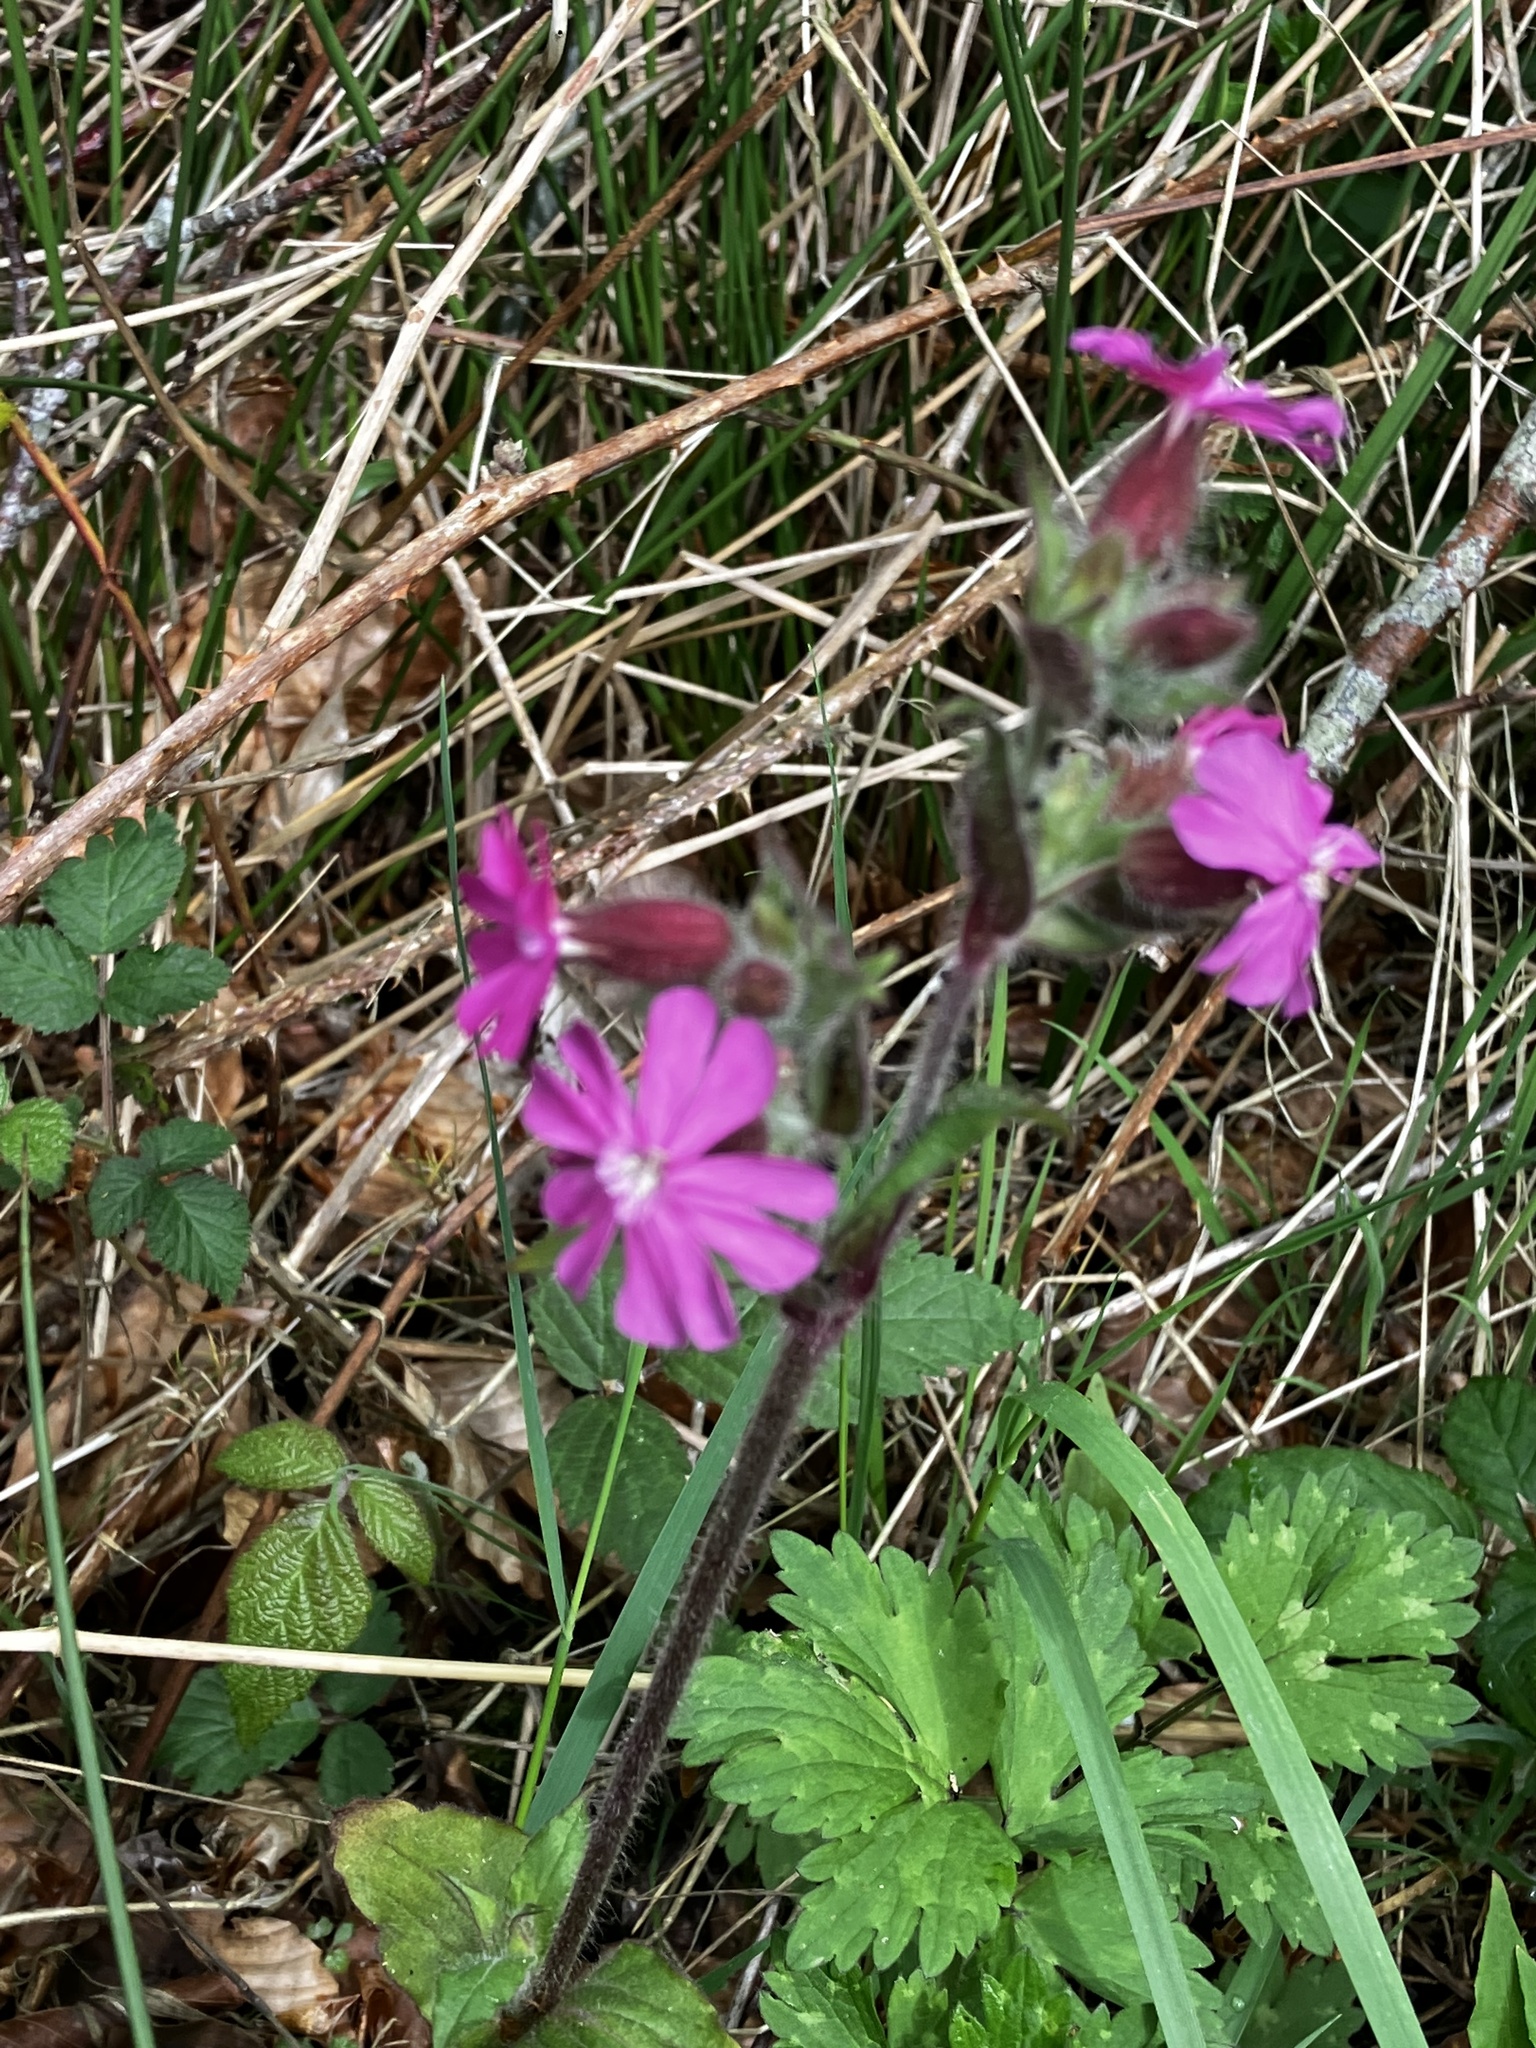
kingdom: Plantae
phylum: Tracheophyta
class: Magnoliopsida
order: Caryophyllales
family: Caryophyllaceae
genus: Silene
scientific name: Silene dioica
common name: Red campion
